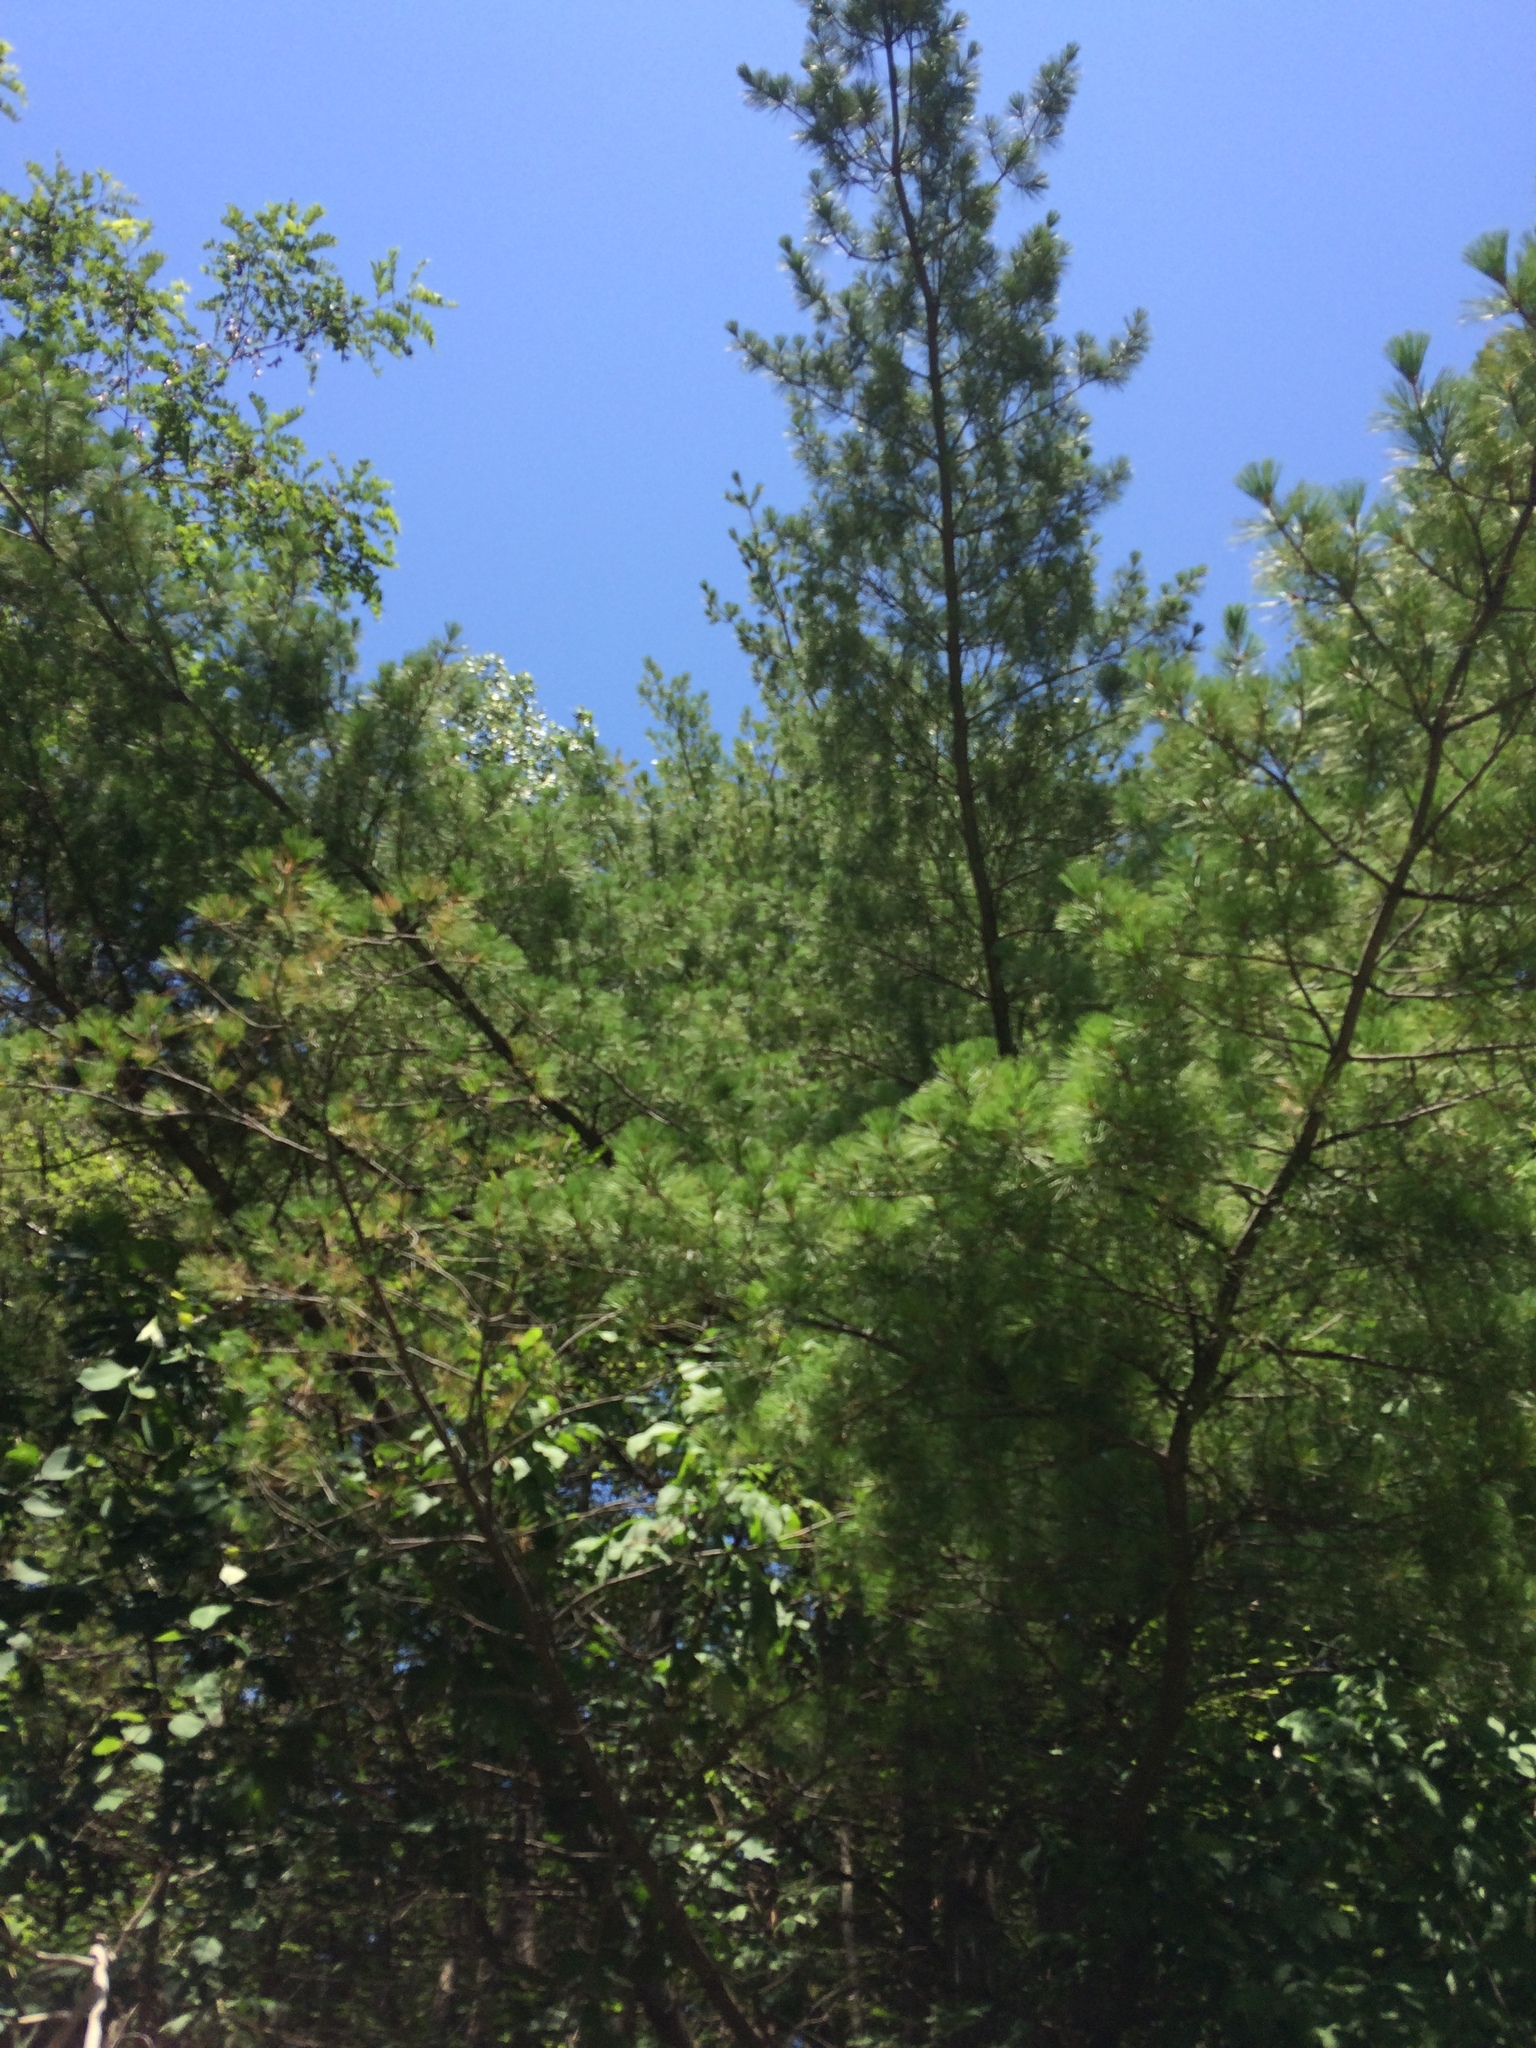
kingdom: Plantae
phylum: Tracheophyta
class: Pinopsida
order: Pinales
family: Pinaceae
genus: Pinus
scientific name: Pinus strobus
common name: Weymouth pine
